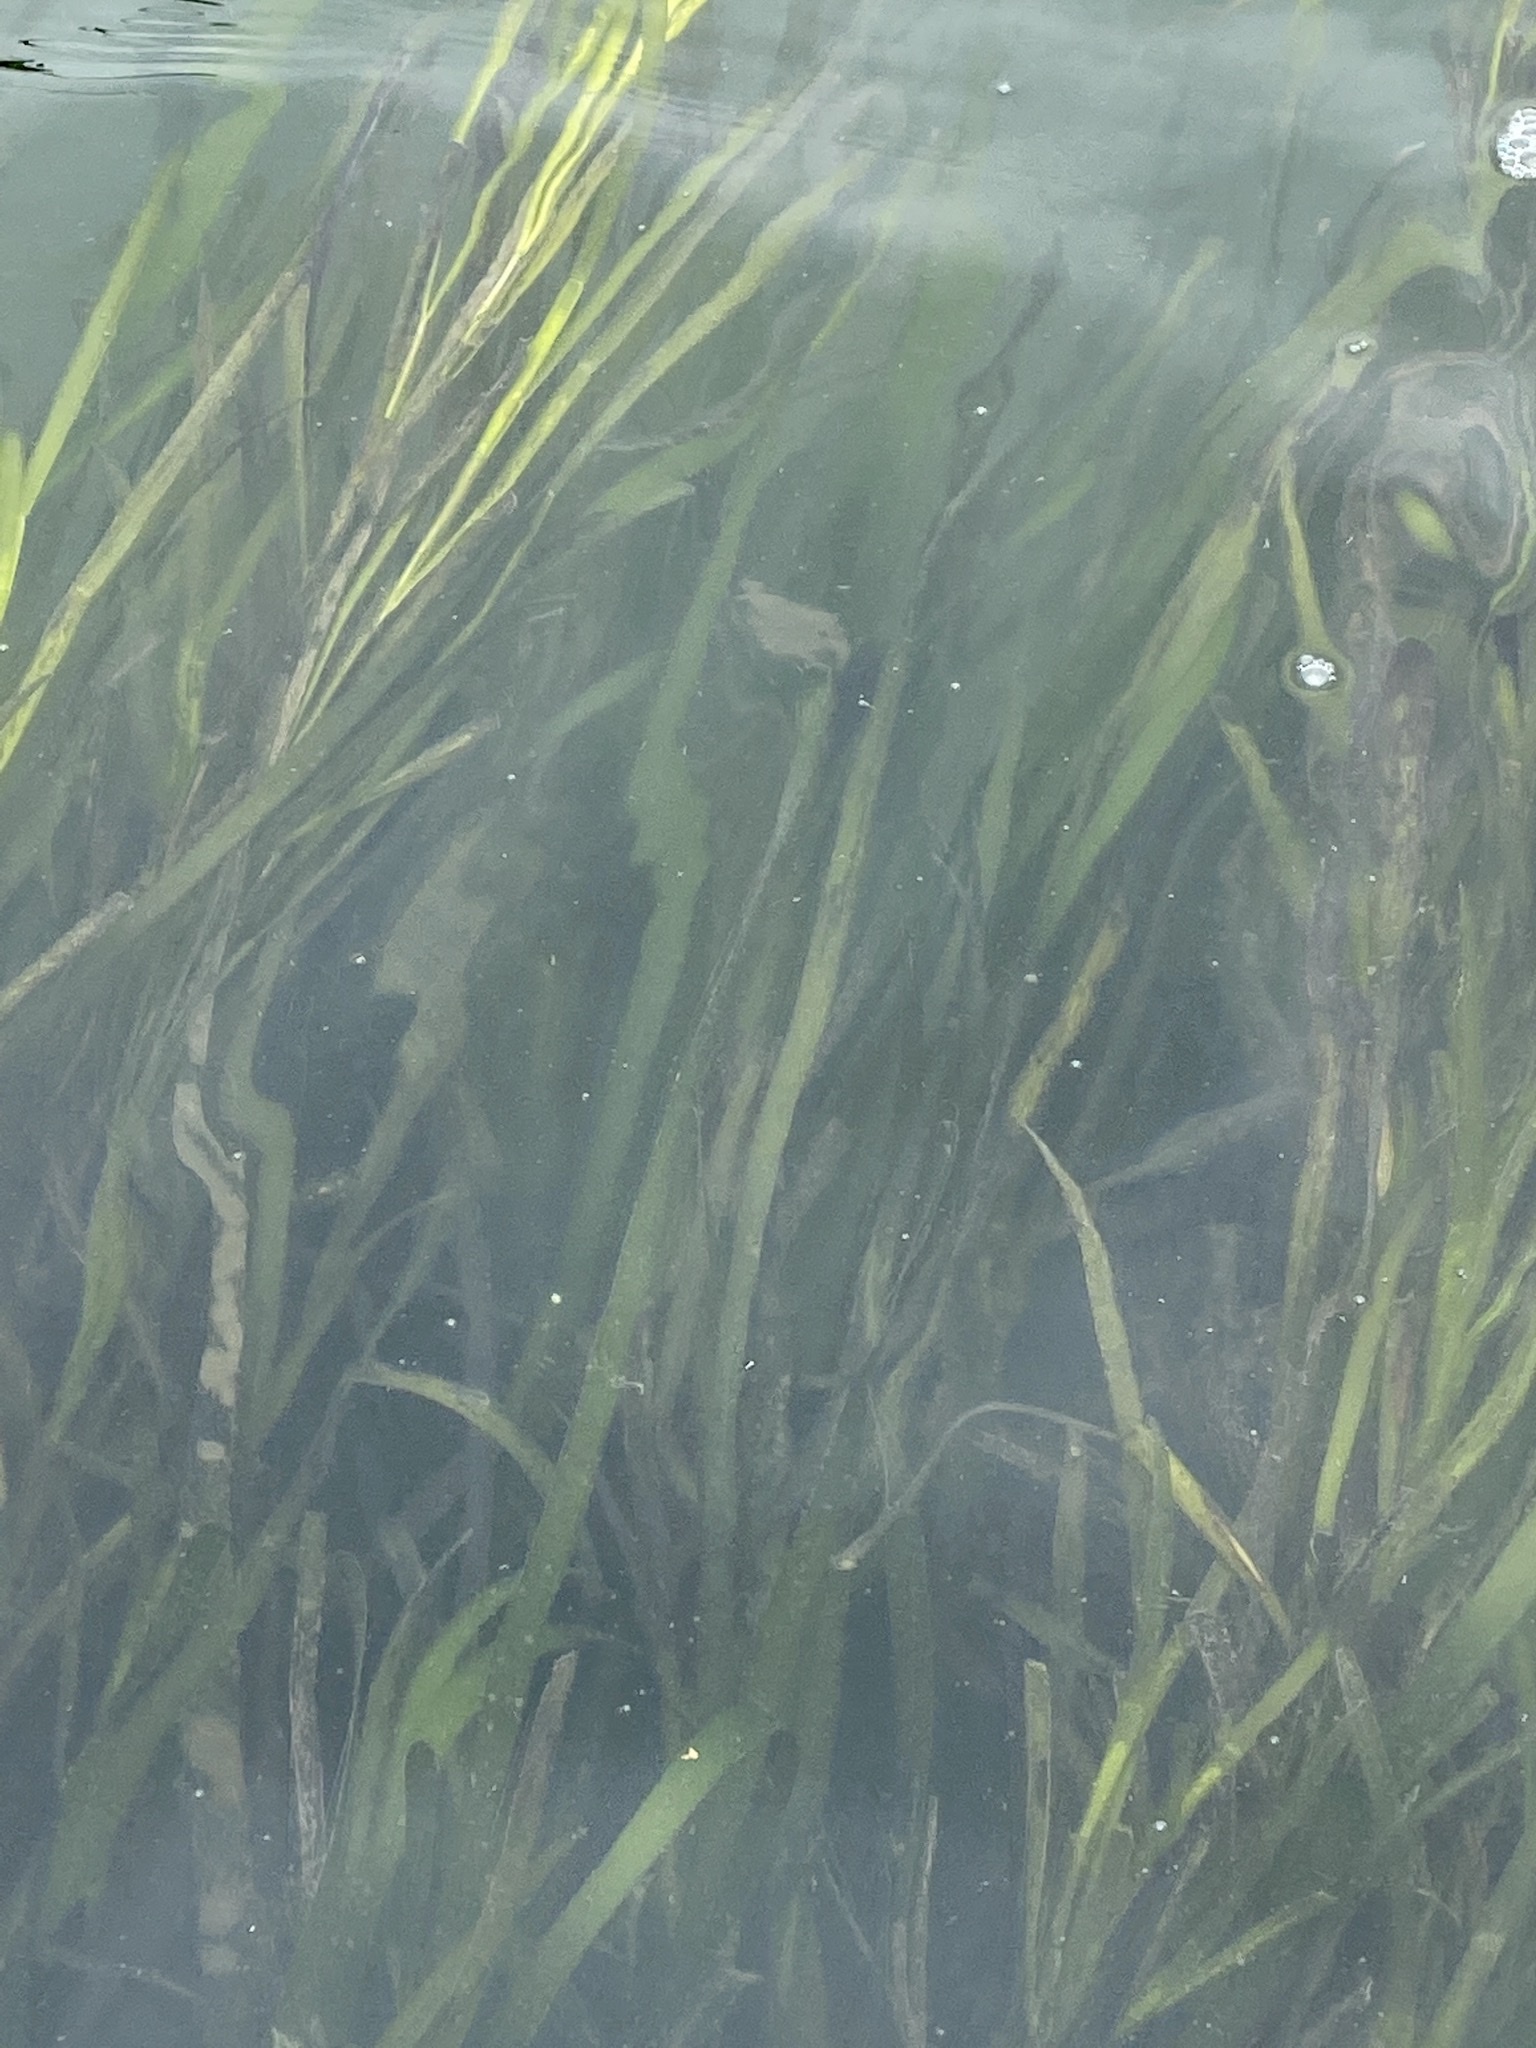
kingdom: Plantae
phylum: Tracheophyta
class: Liliopsida
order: Alismatales
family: Zosteraceae
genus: Zostera
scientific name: Zostera marina
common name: Eelgrass
